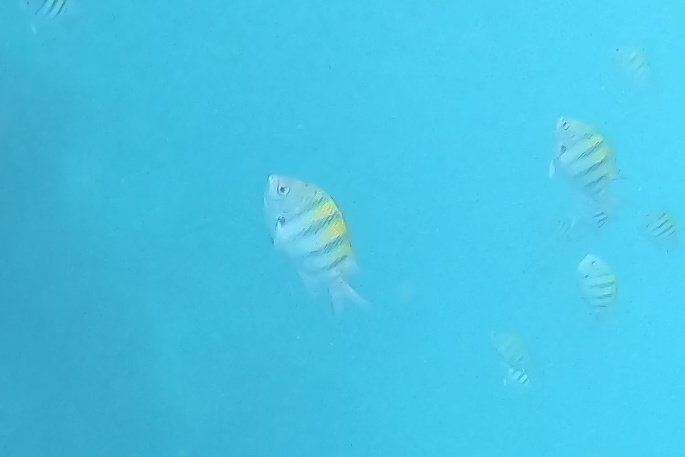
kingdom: Animalia
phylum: Chordata
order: Perciformes
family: Pomacentridae
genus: Abudefduf
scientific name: Abudefduf saxatilis
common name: Sergeant major
